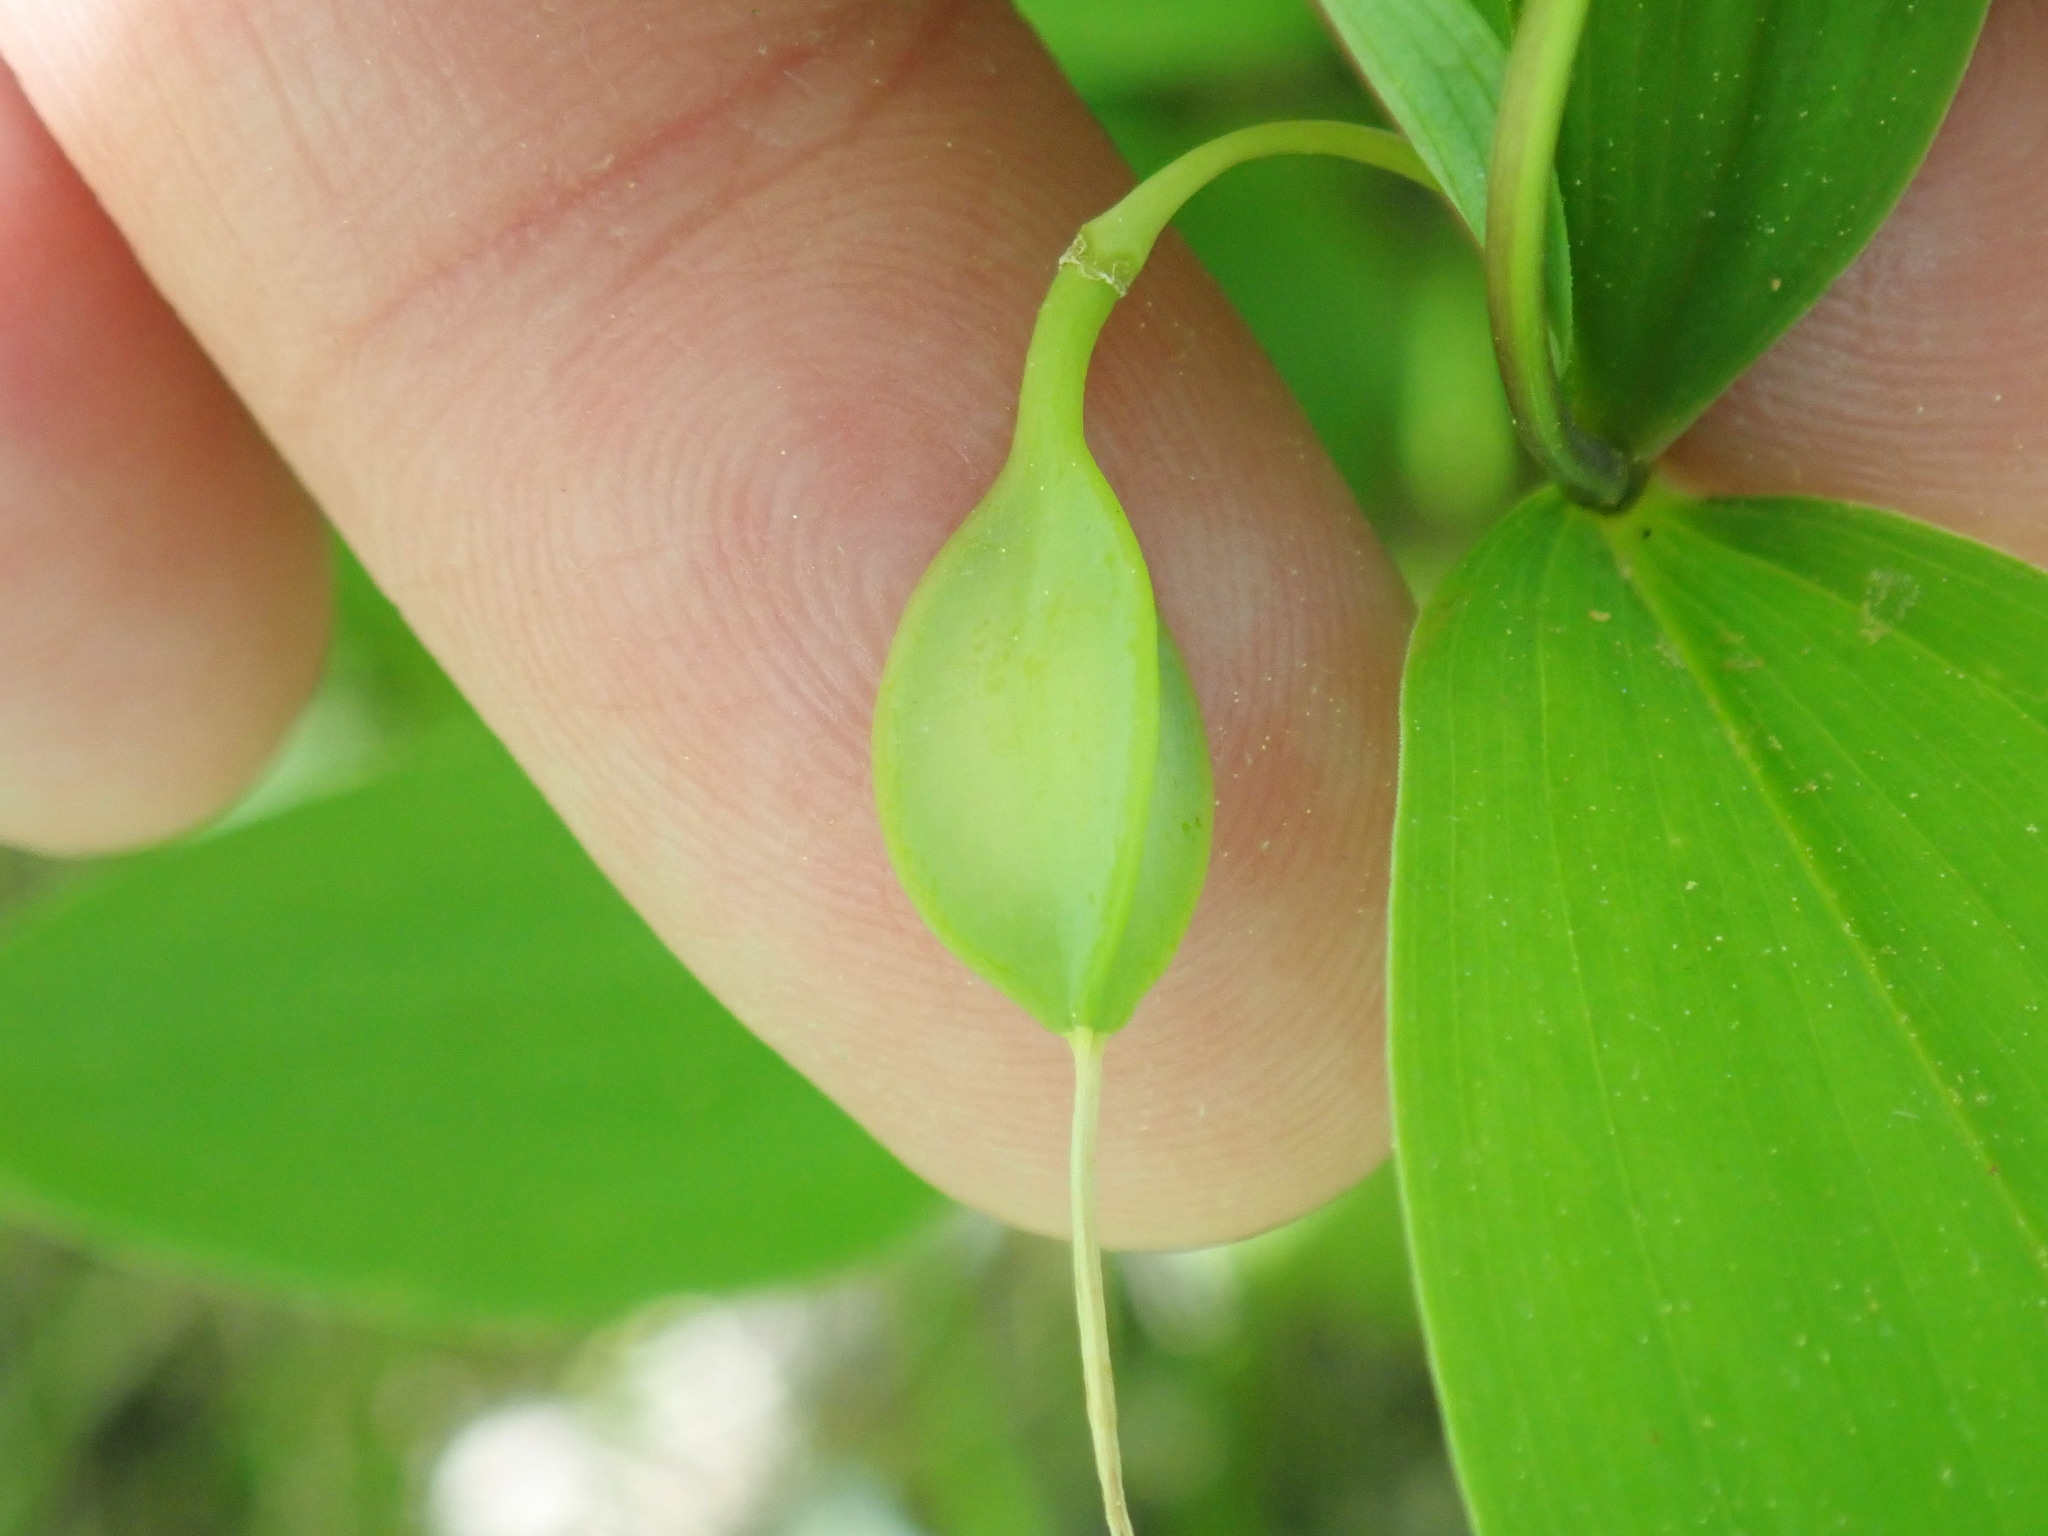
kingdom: Plantae
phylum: Tracheophyta
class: Liliopsida
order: Liliales
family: Colchicaceae
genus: Uvularia
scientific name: Uvularia sessilifolia
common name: Straw-lily
